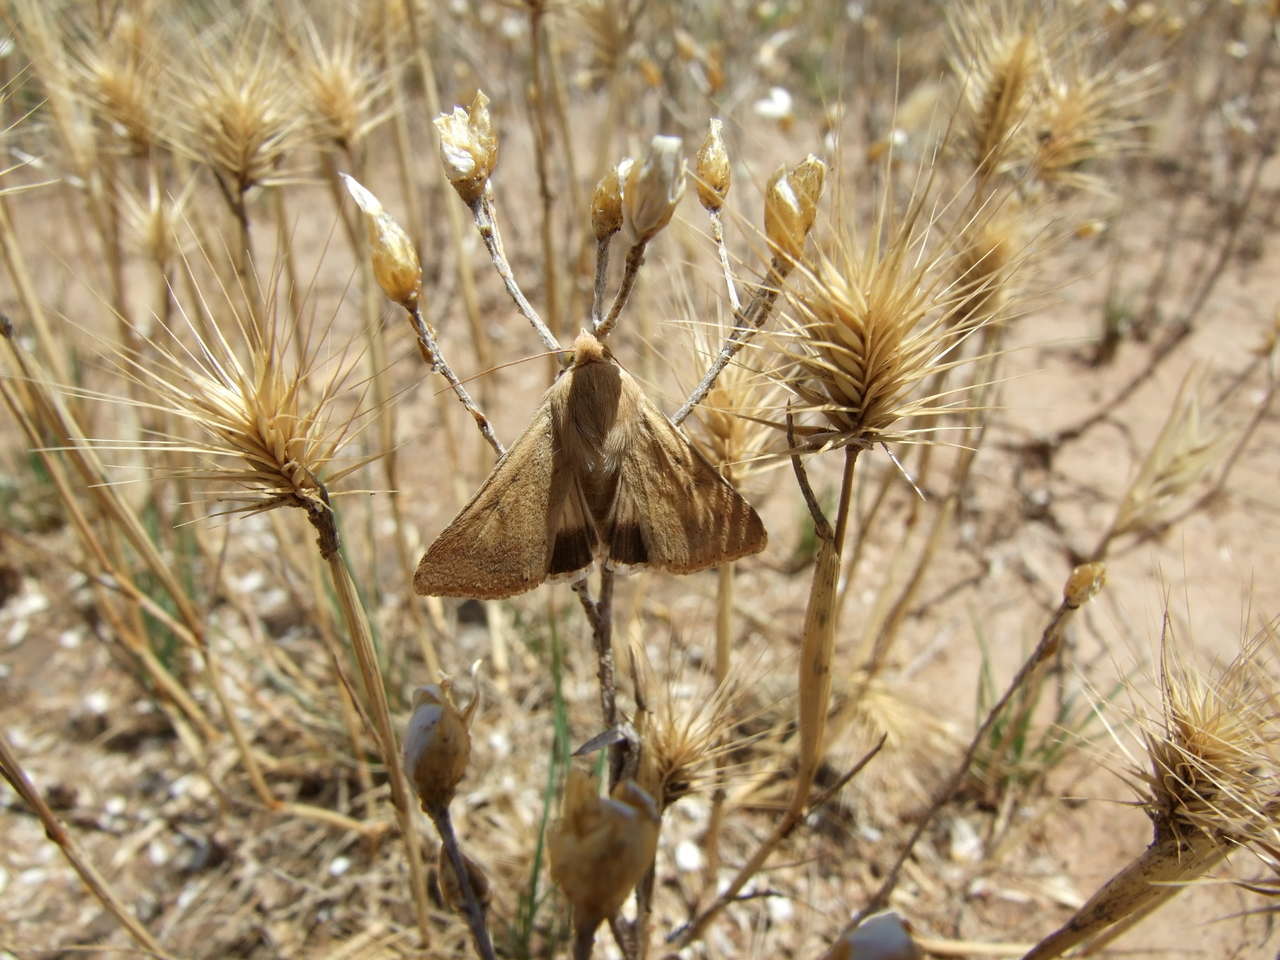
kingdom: Animalia
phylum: Arthropoda
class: Insecta
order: Lepidoptera
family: Noctuidae
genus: Helicoverpa
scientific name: Helicoverpa punctigera
